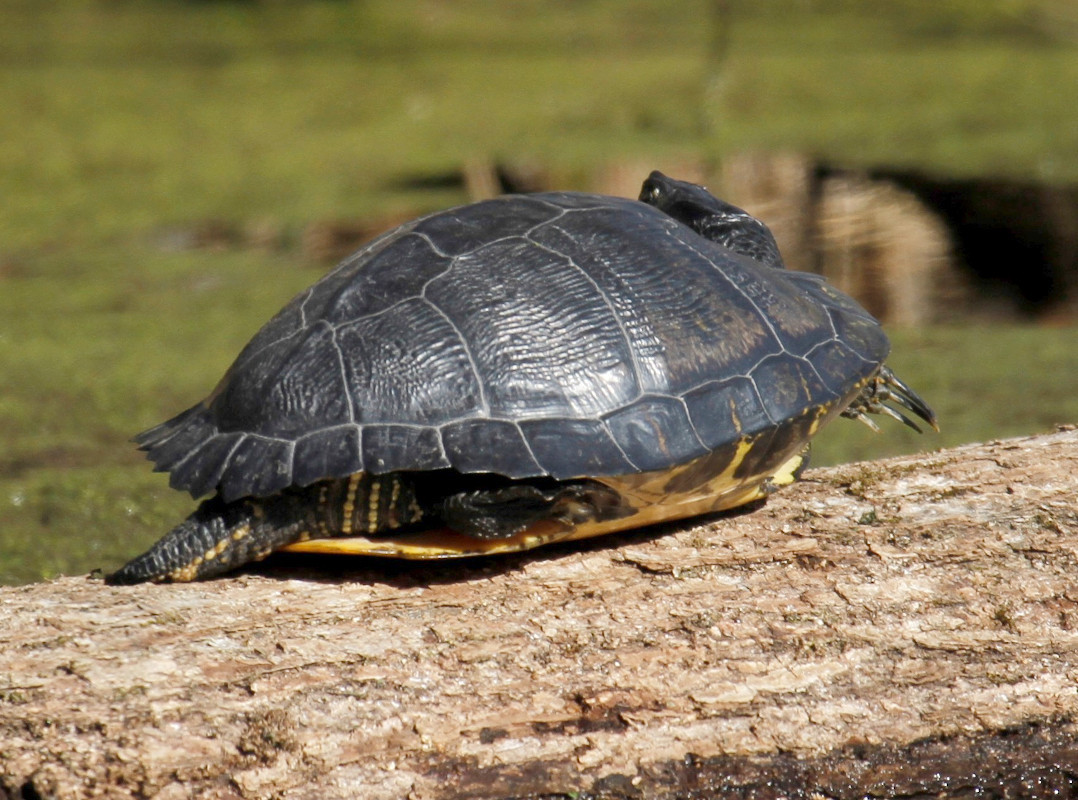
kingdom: Animalia
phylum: Chordata
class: Testudines
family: Emydidae
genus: Trachemys
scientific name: Trachemys scripta
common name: Slider
